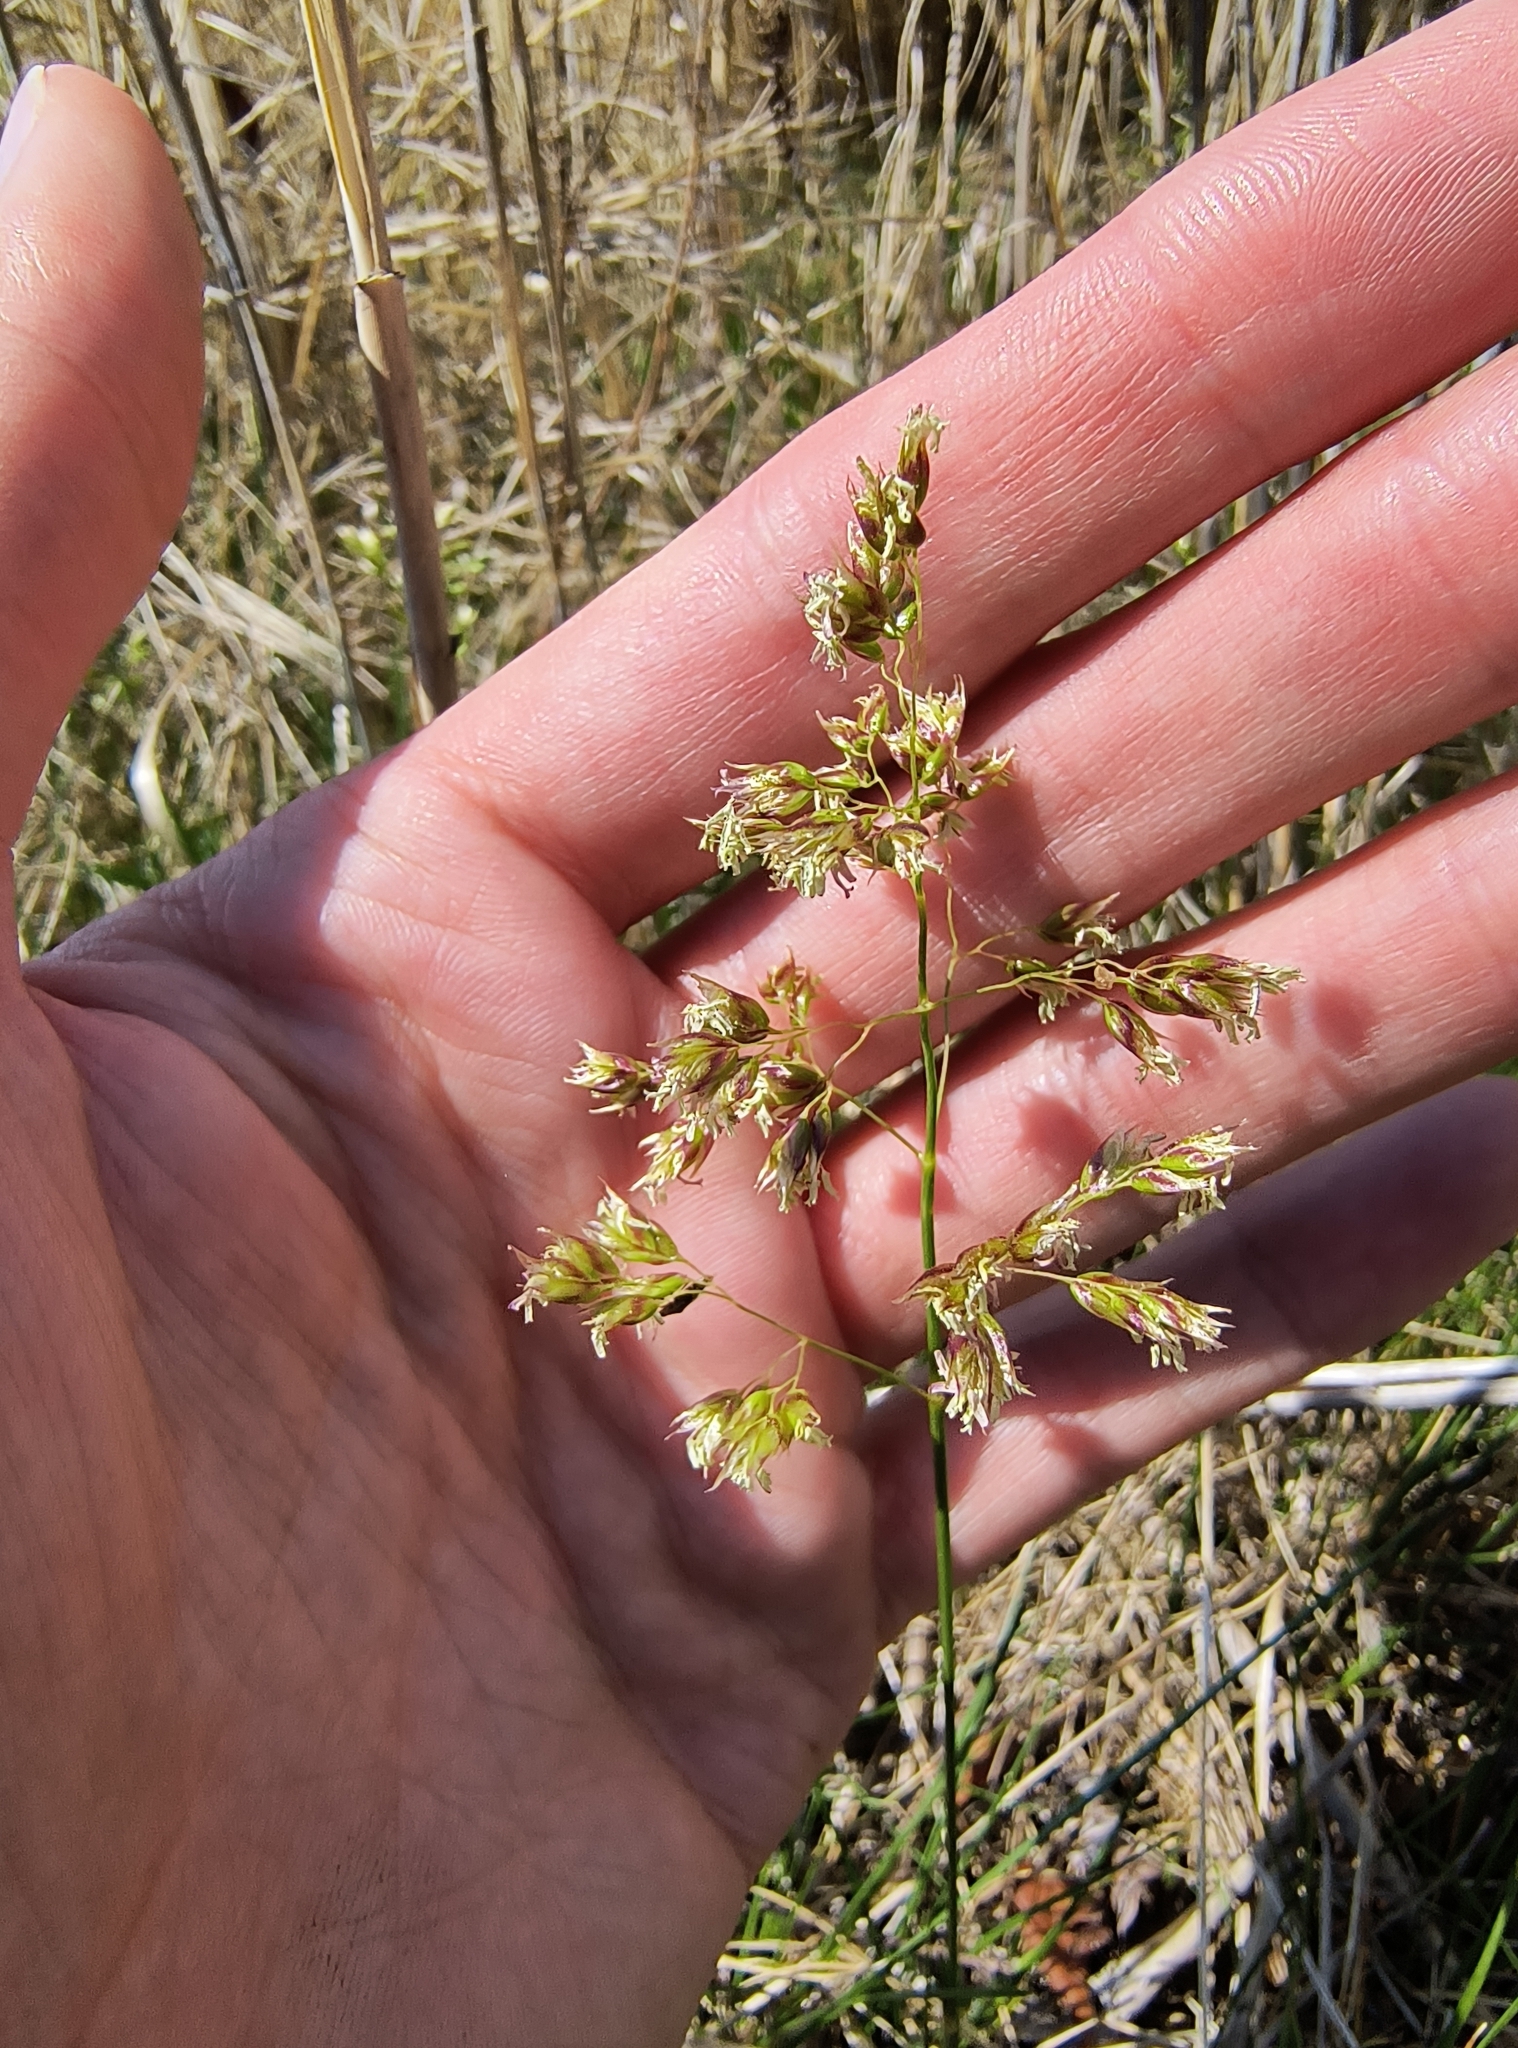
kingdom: Plantae
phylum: Tracheophyta
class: Liliopsida
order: Poales
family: Poaceae
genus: Anthoxanthum
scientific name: Anthoxanthum nitens
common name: Holy grass
